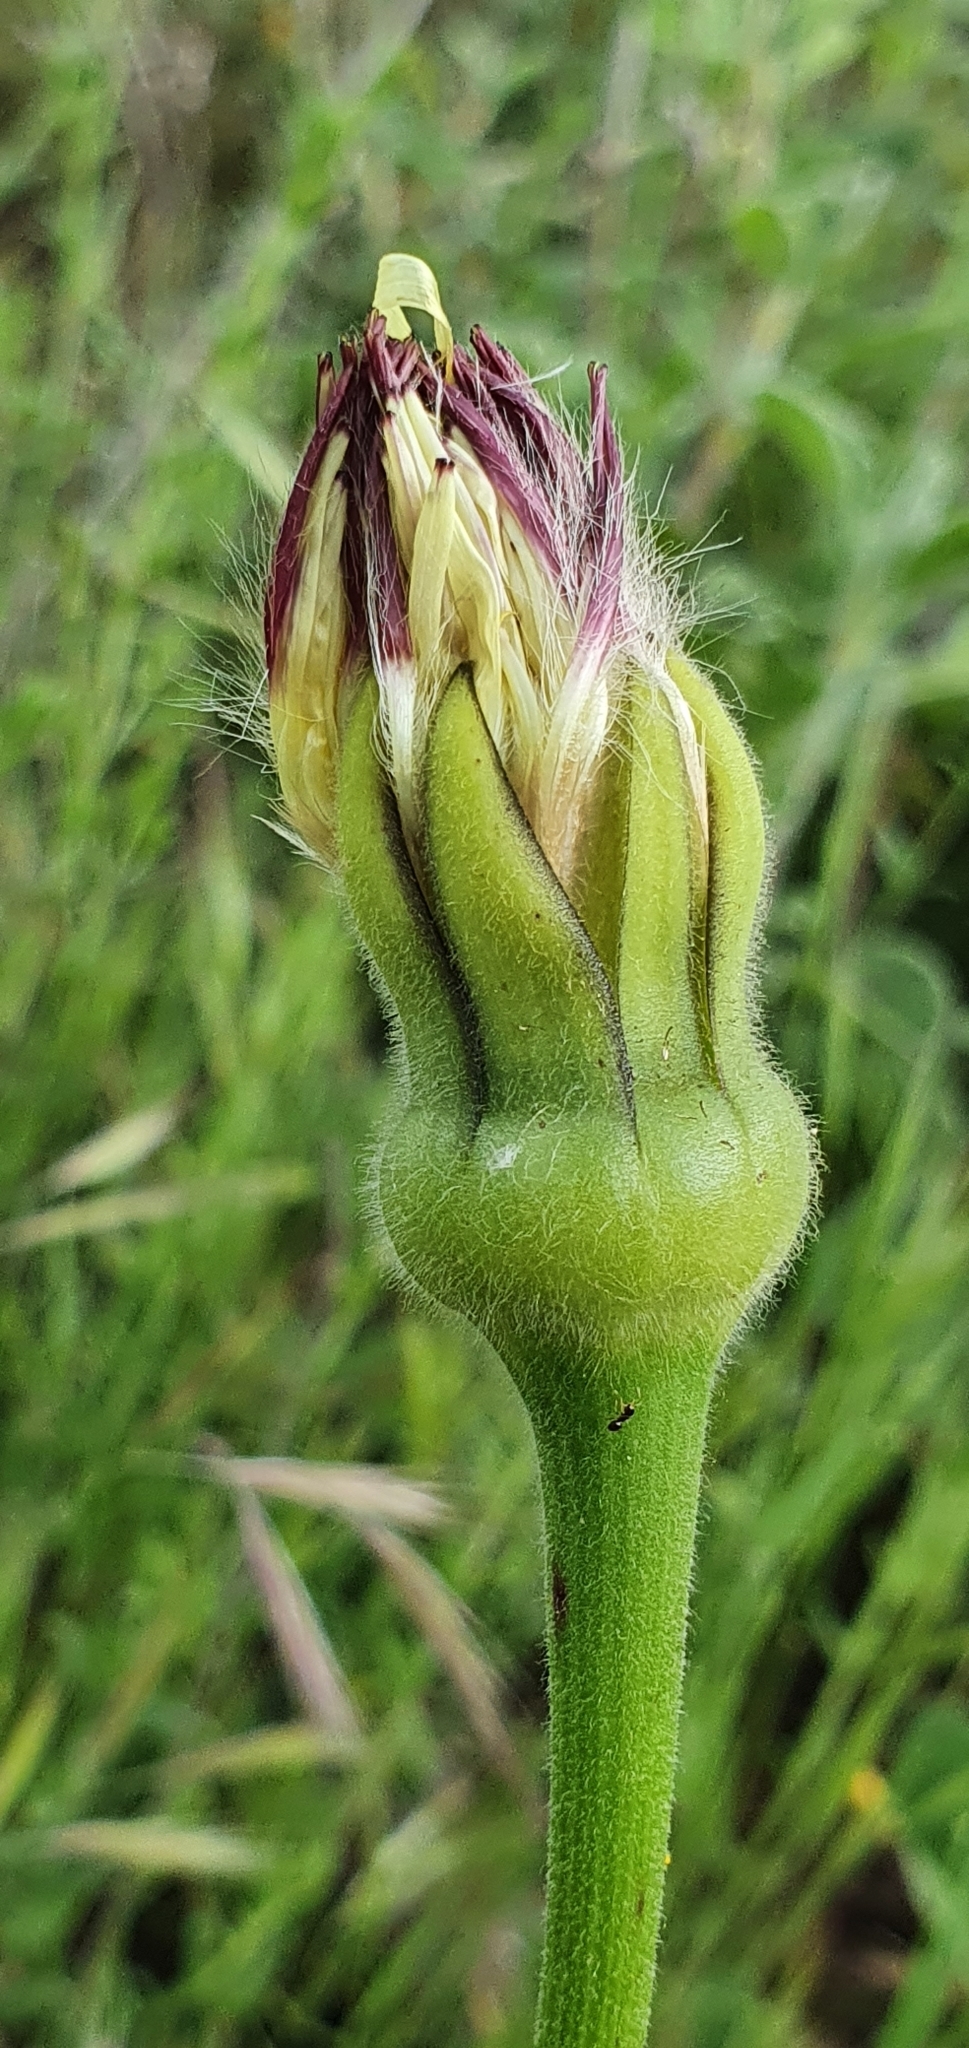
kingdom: Plantae
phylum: Tracheophyta
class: Magnoliopsida
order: Asterales
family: Asteraceae
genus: Urospermum
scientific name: Urospermum dalechampii
